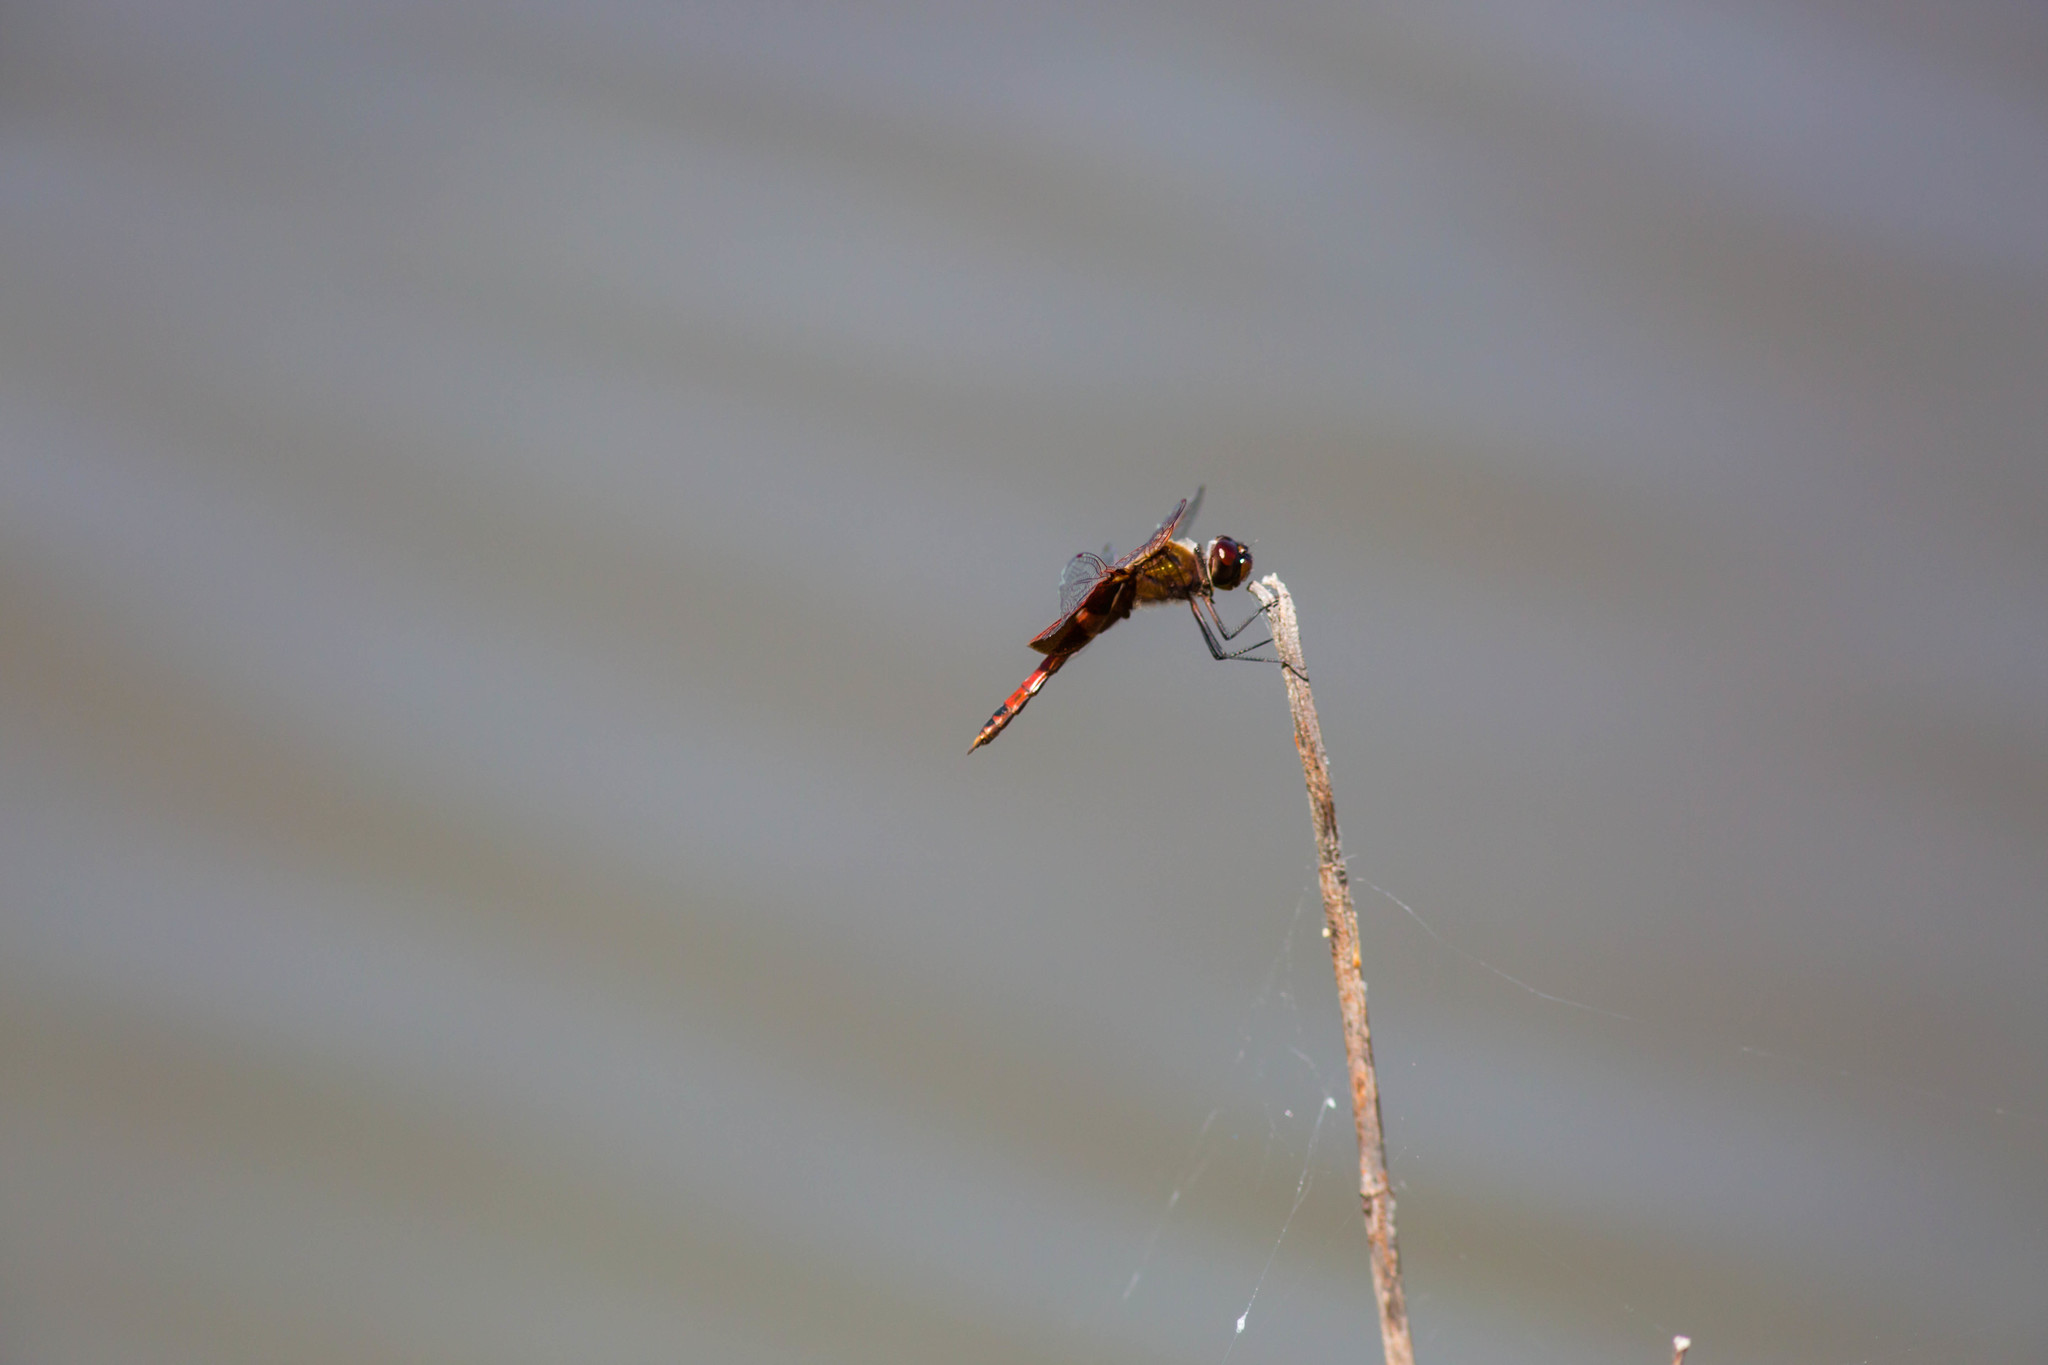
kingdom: Animalia
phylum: Arthropoda
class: Insecta
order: Odonata
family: Libellulidae
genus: Tramea
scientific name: Tramea onusta
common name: Red saddlebags
